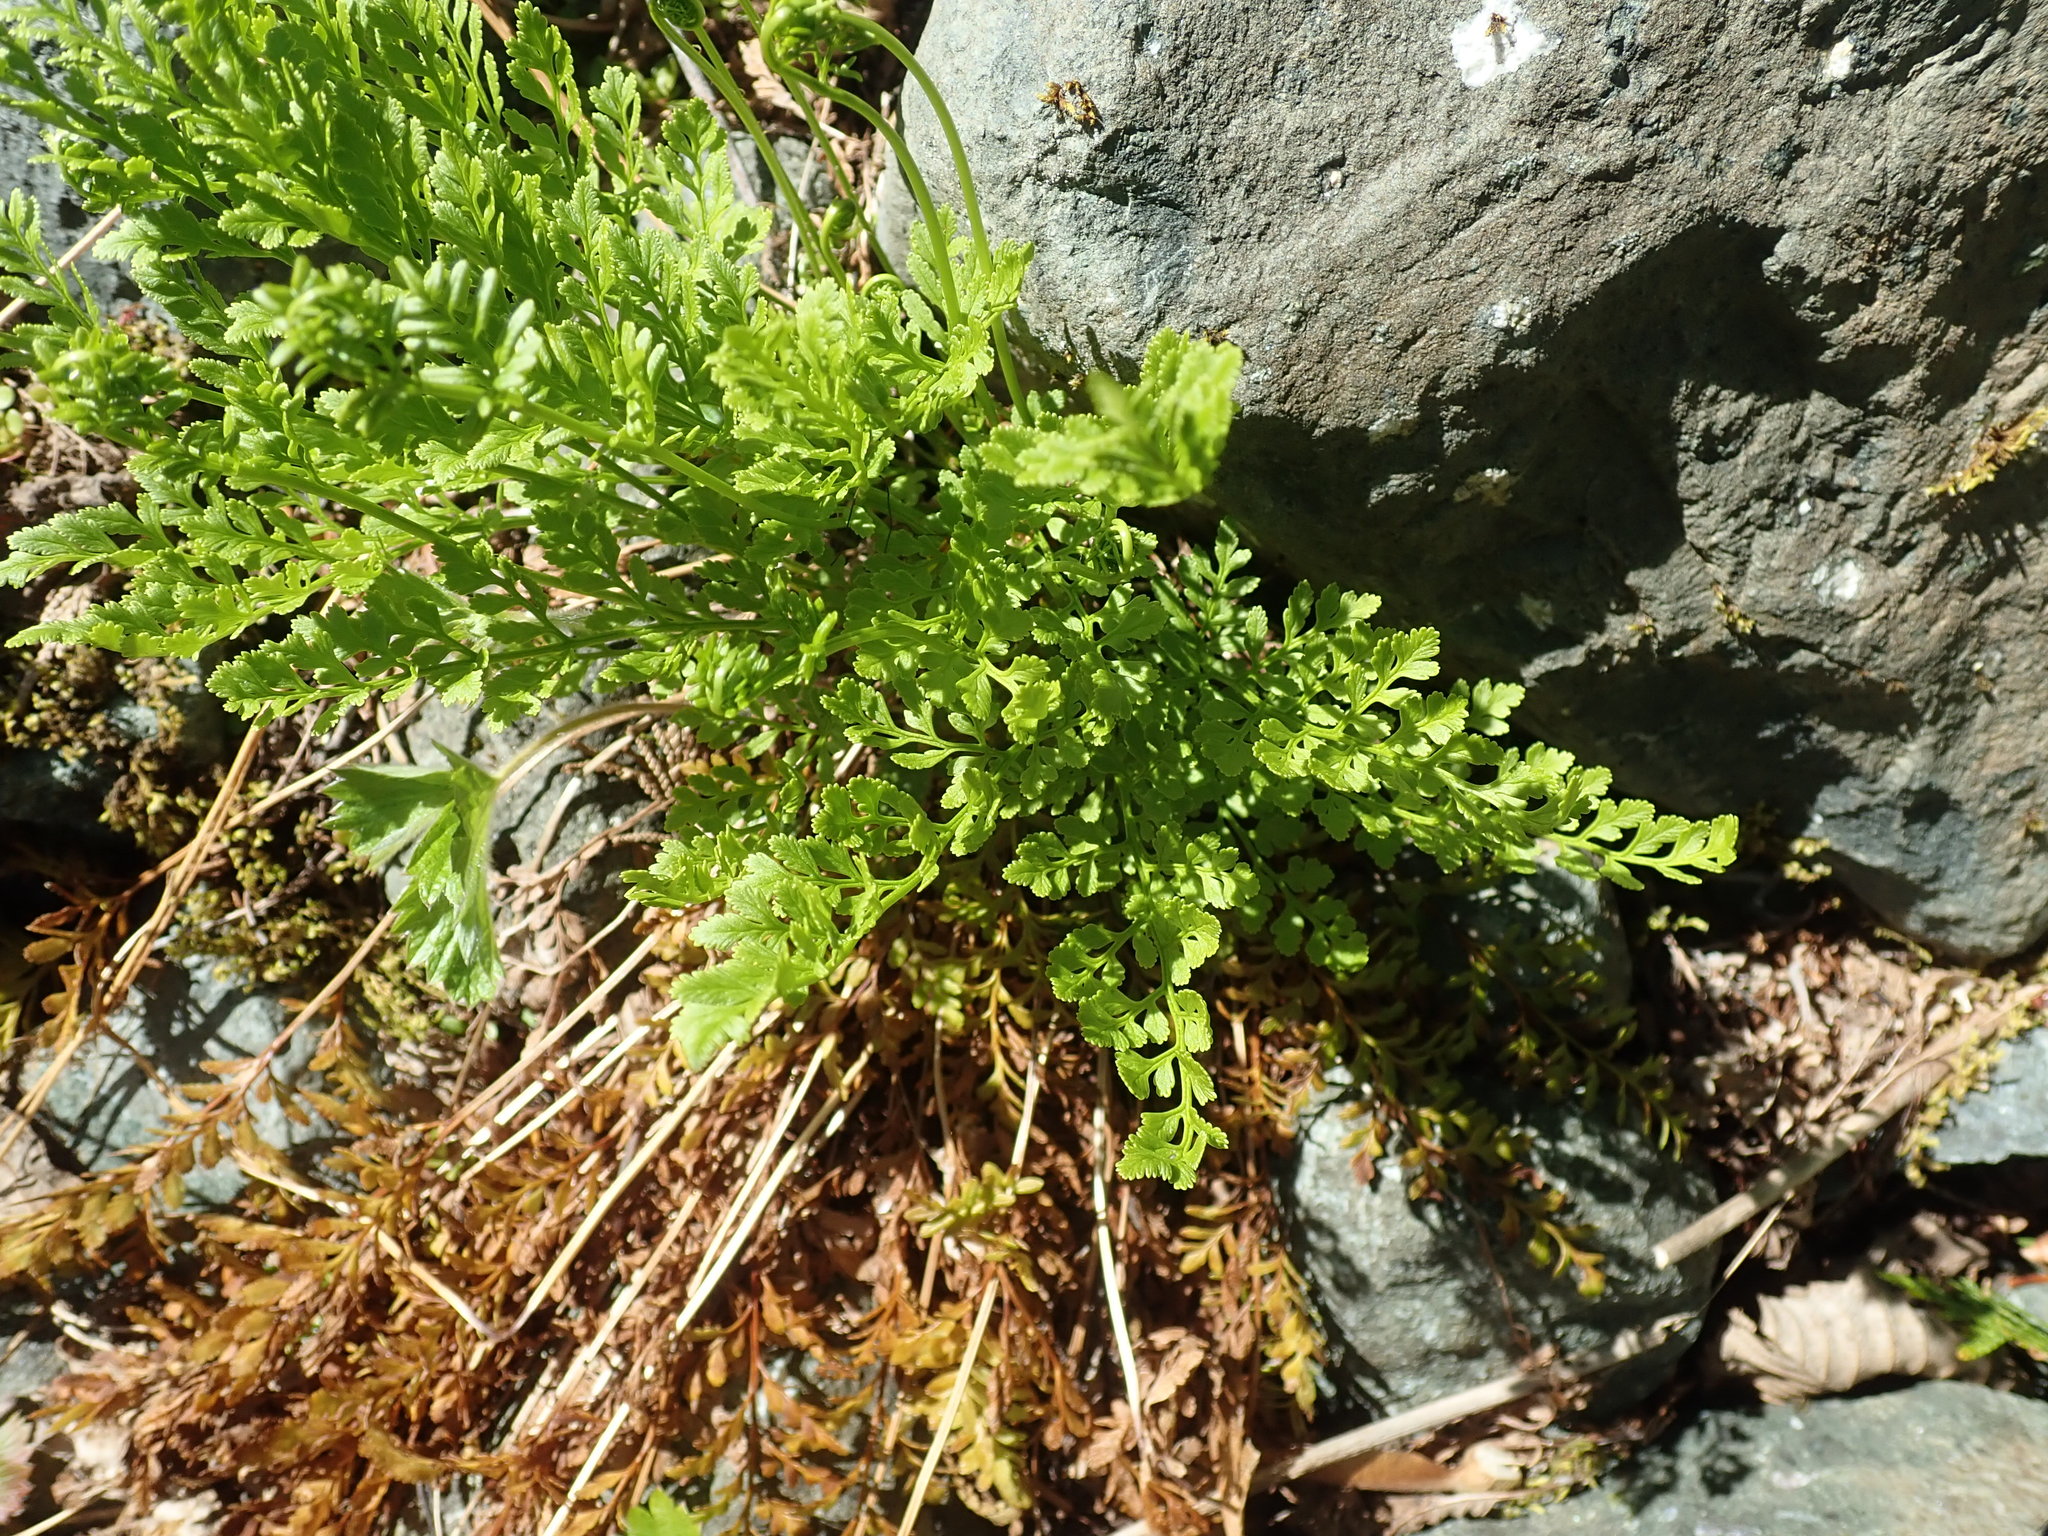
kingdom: Plantae
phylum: Tracheophyta
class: Polypodiopsida
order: Polypodiales
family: Pteridaceae
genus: Cryptogramma
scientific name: Cryptogramma acrostichoides
